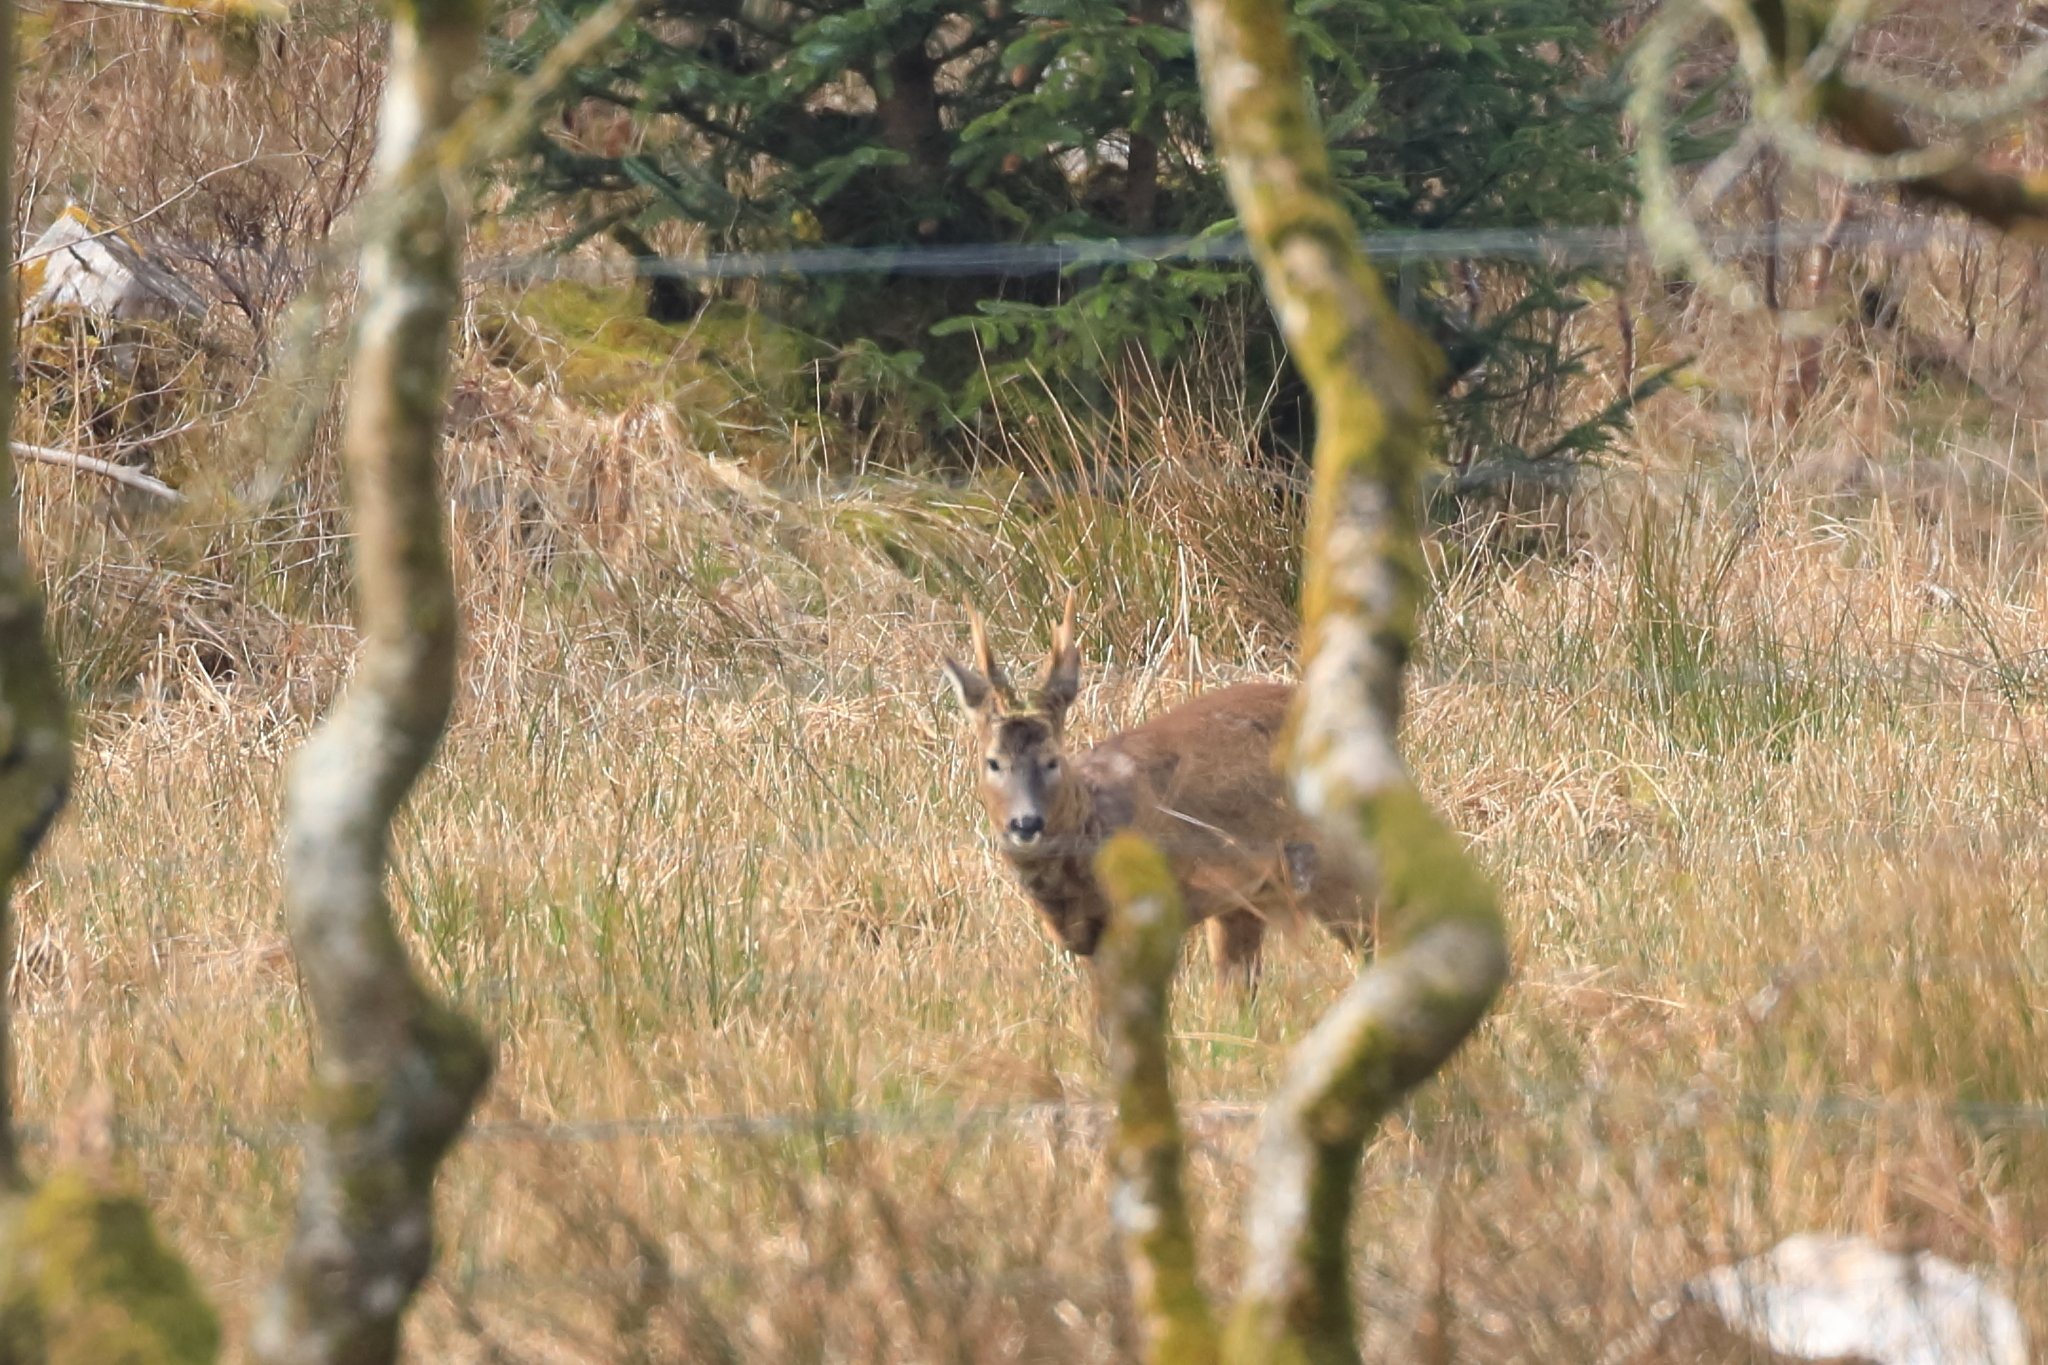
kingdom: Animalia
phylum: Chordata
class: Mammalia
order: Artiodactyla
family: Cervidae
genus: Capreolus
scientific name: Capreolus capreolus
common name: Western roe deer
